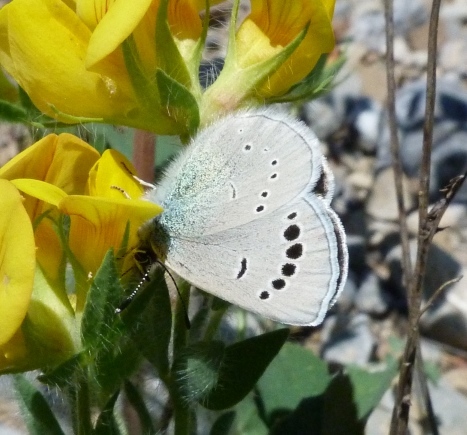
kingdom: Animalia
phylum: Arthropoda
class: Insecta
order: Lepidoptera
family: Lycaenidae
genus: Glaucopsyche
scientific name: Glaucopsyche alexis
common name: Green-underside blue
